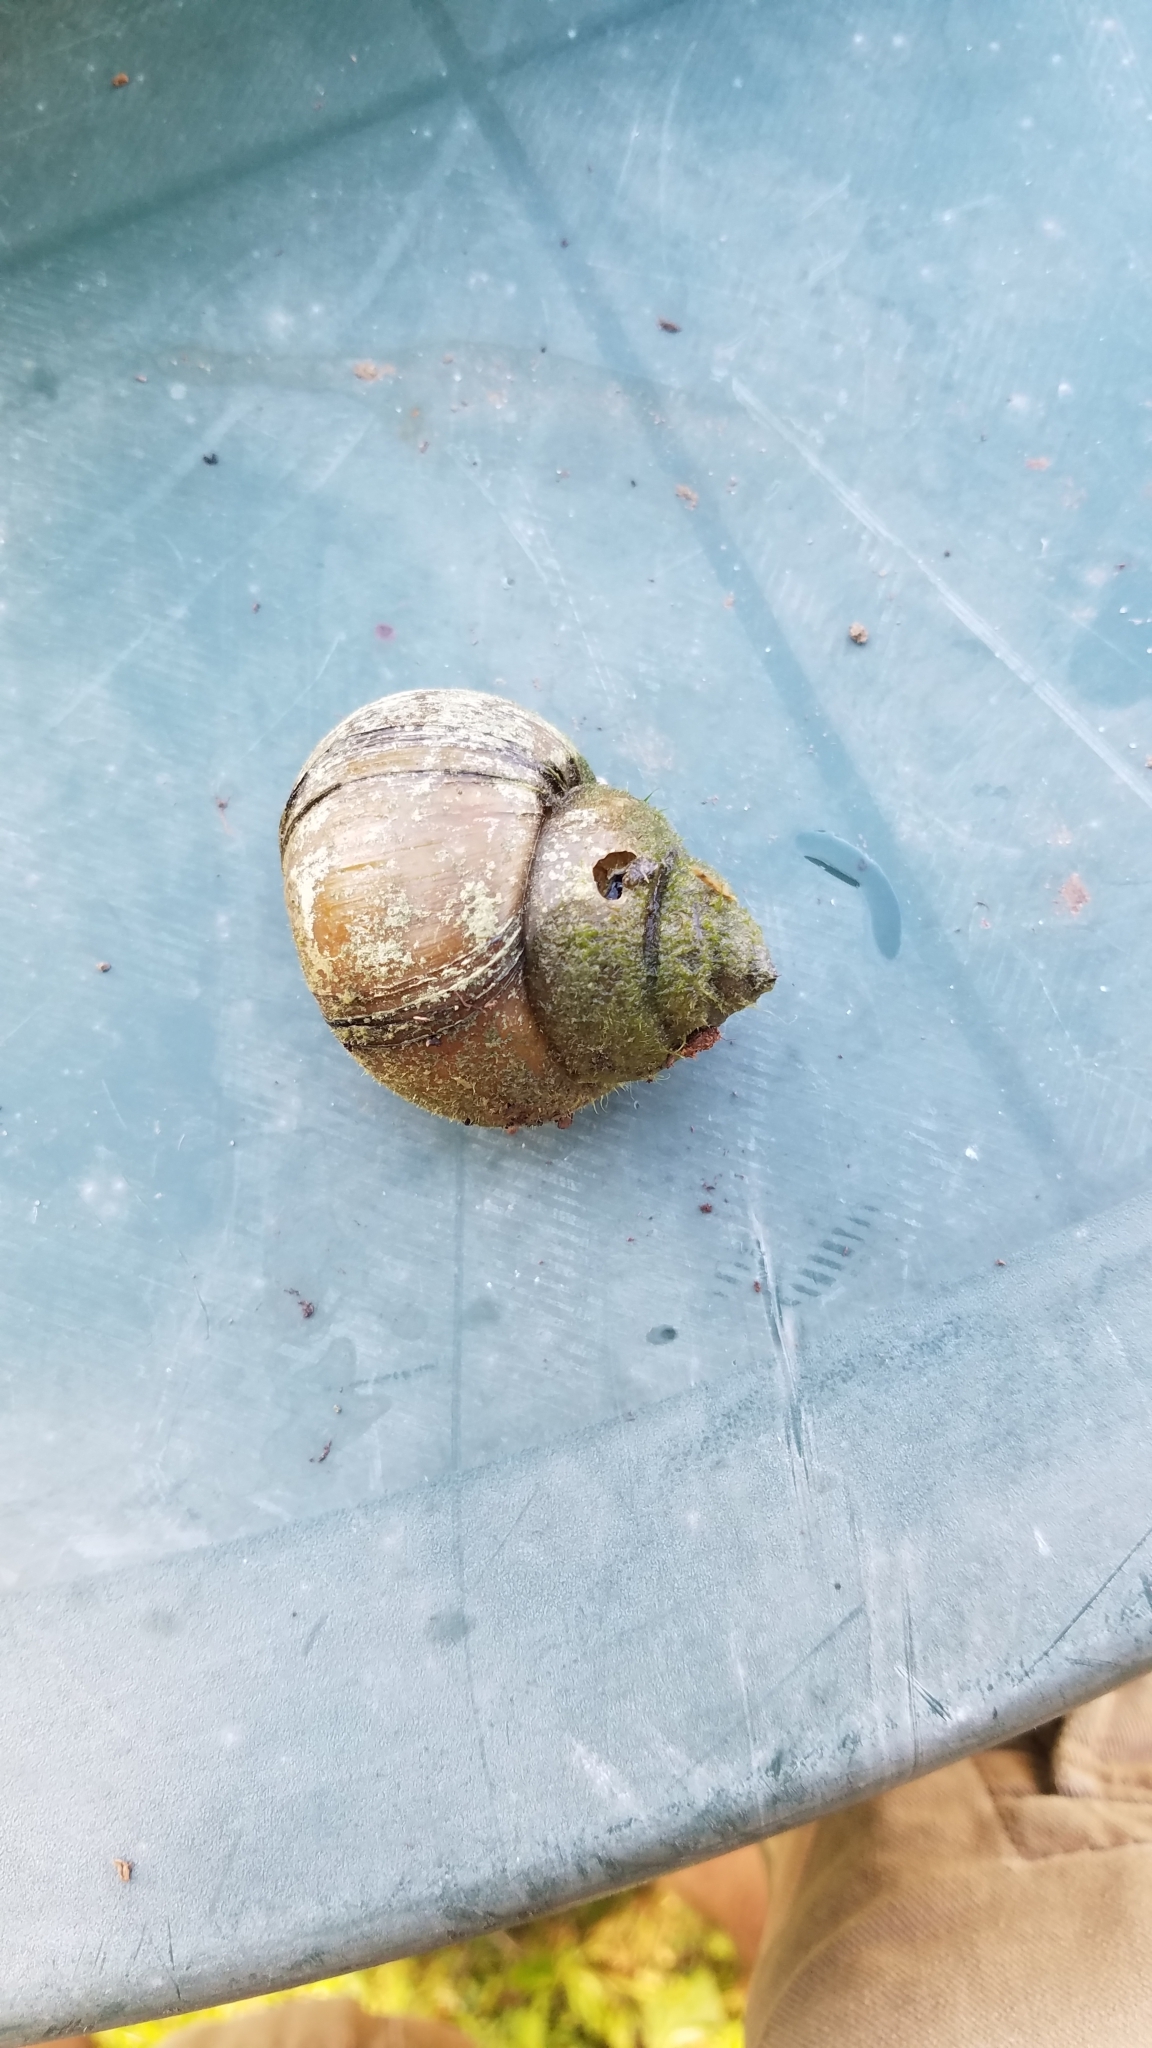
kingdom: Animalia
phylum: Mollusca
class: Gastropoda
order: Architaenioglossa
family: Viviparidae
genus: Cipangopaludina
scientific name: Cipangopaludina chinensis
